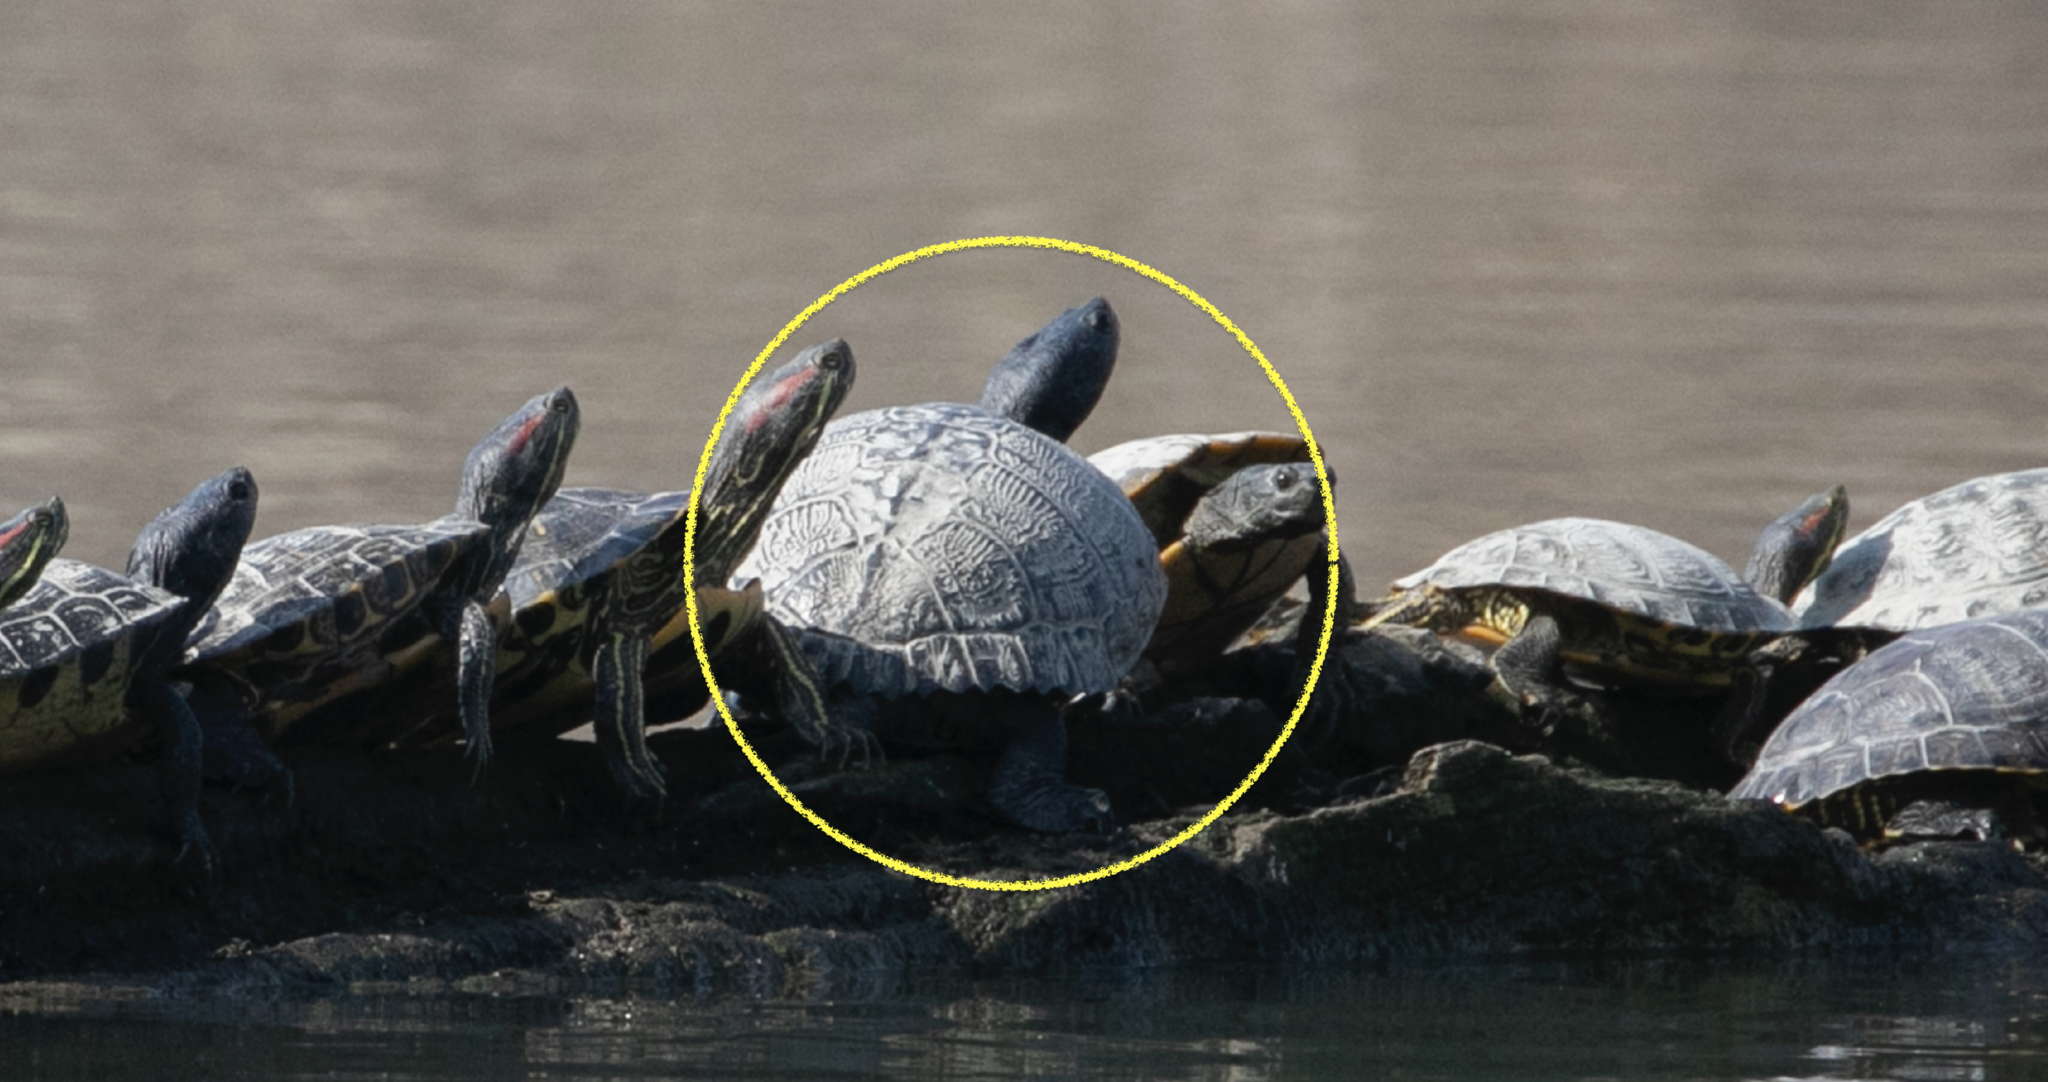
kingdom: Animalia
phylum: Chordata
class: Testudines
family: Emydidae
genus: Trachemys
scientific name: Trachemys scripta
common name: Slider
